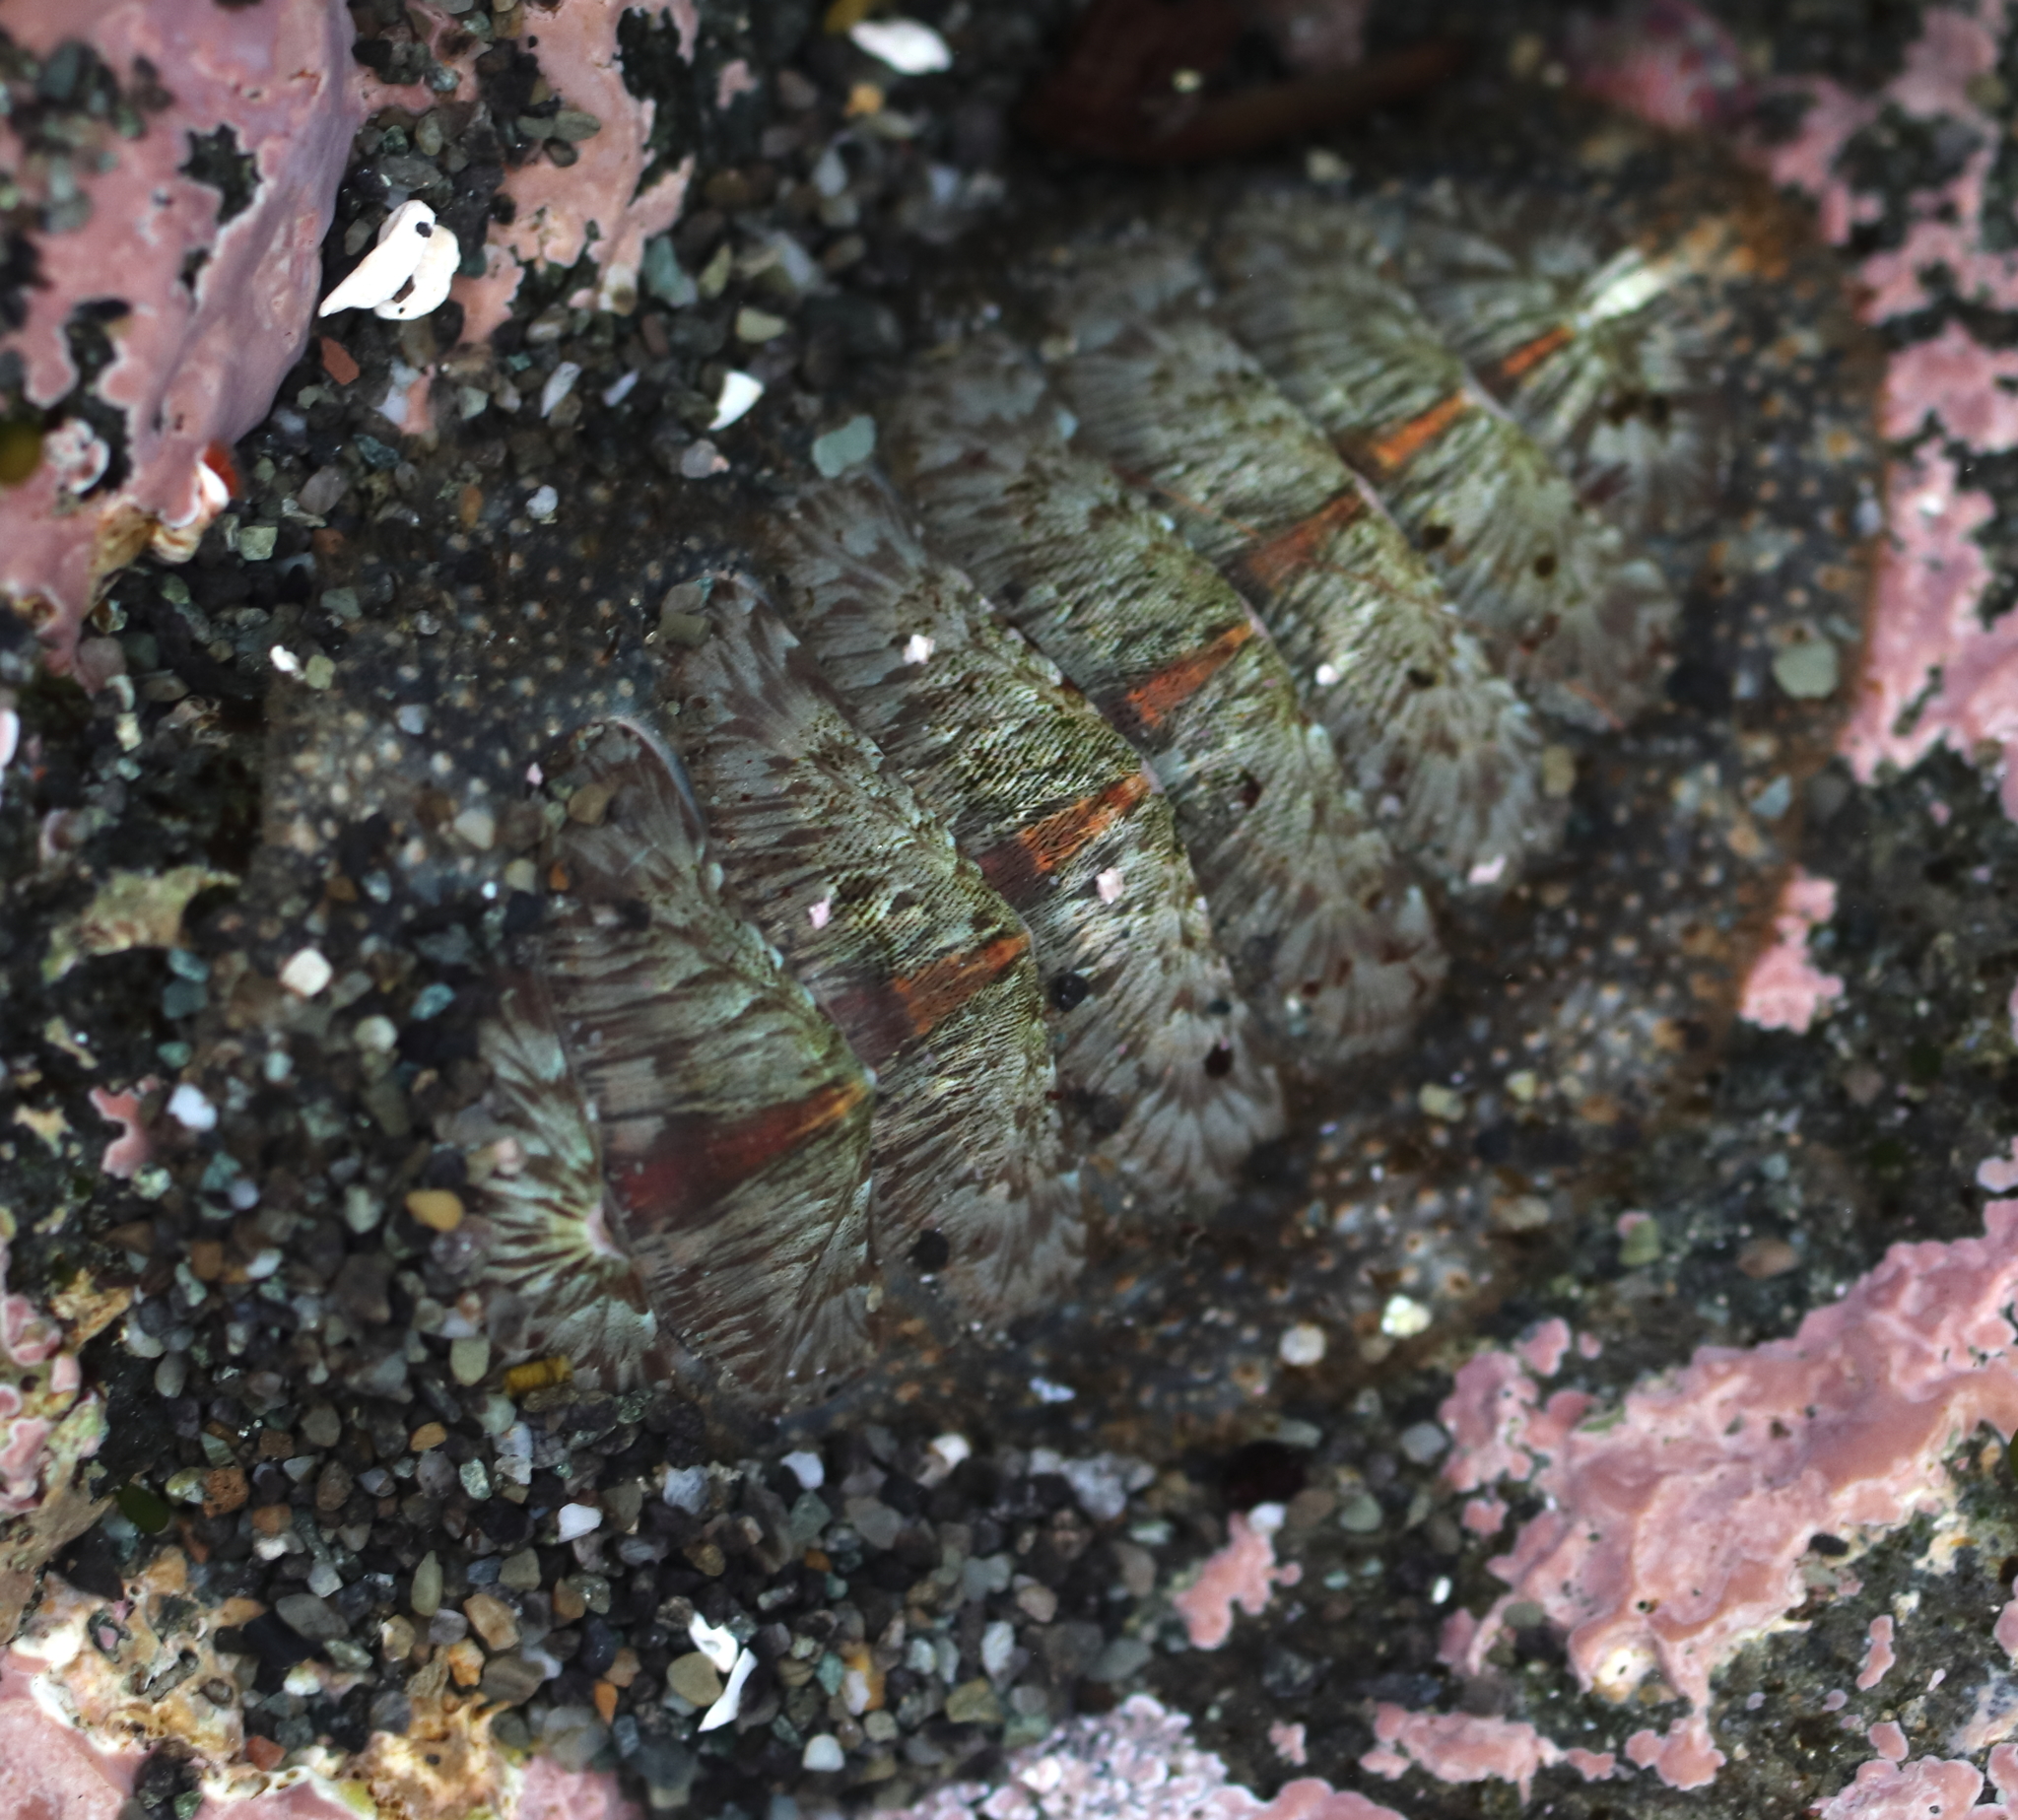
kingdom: Animalia
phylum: Mollusca
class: Polyplacophora
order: Chitonida
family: Mopaliidae
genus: Mopalia
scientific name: Mopalia lignosa
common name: Woody chiton
